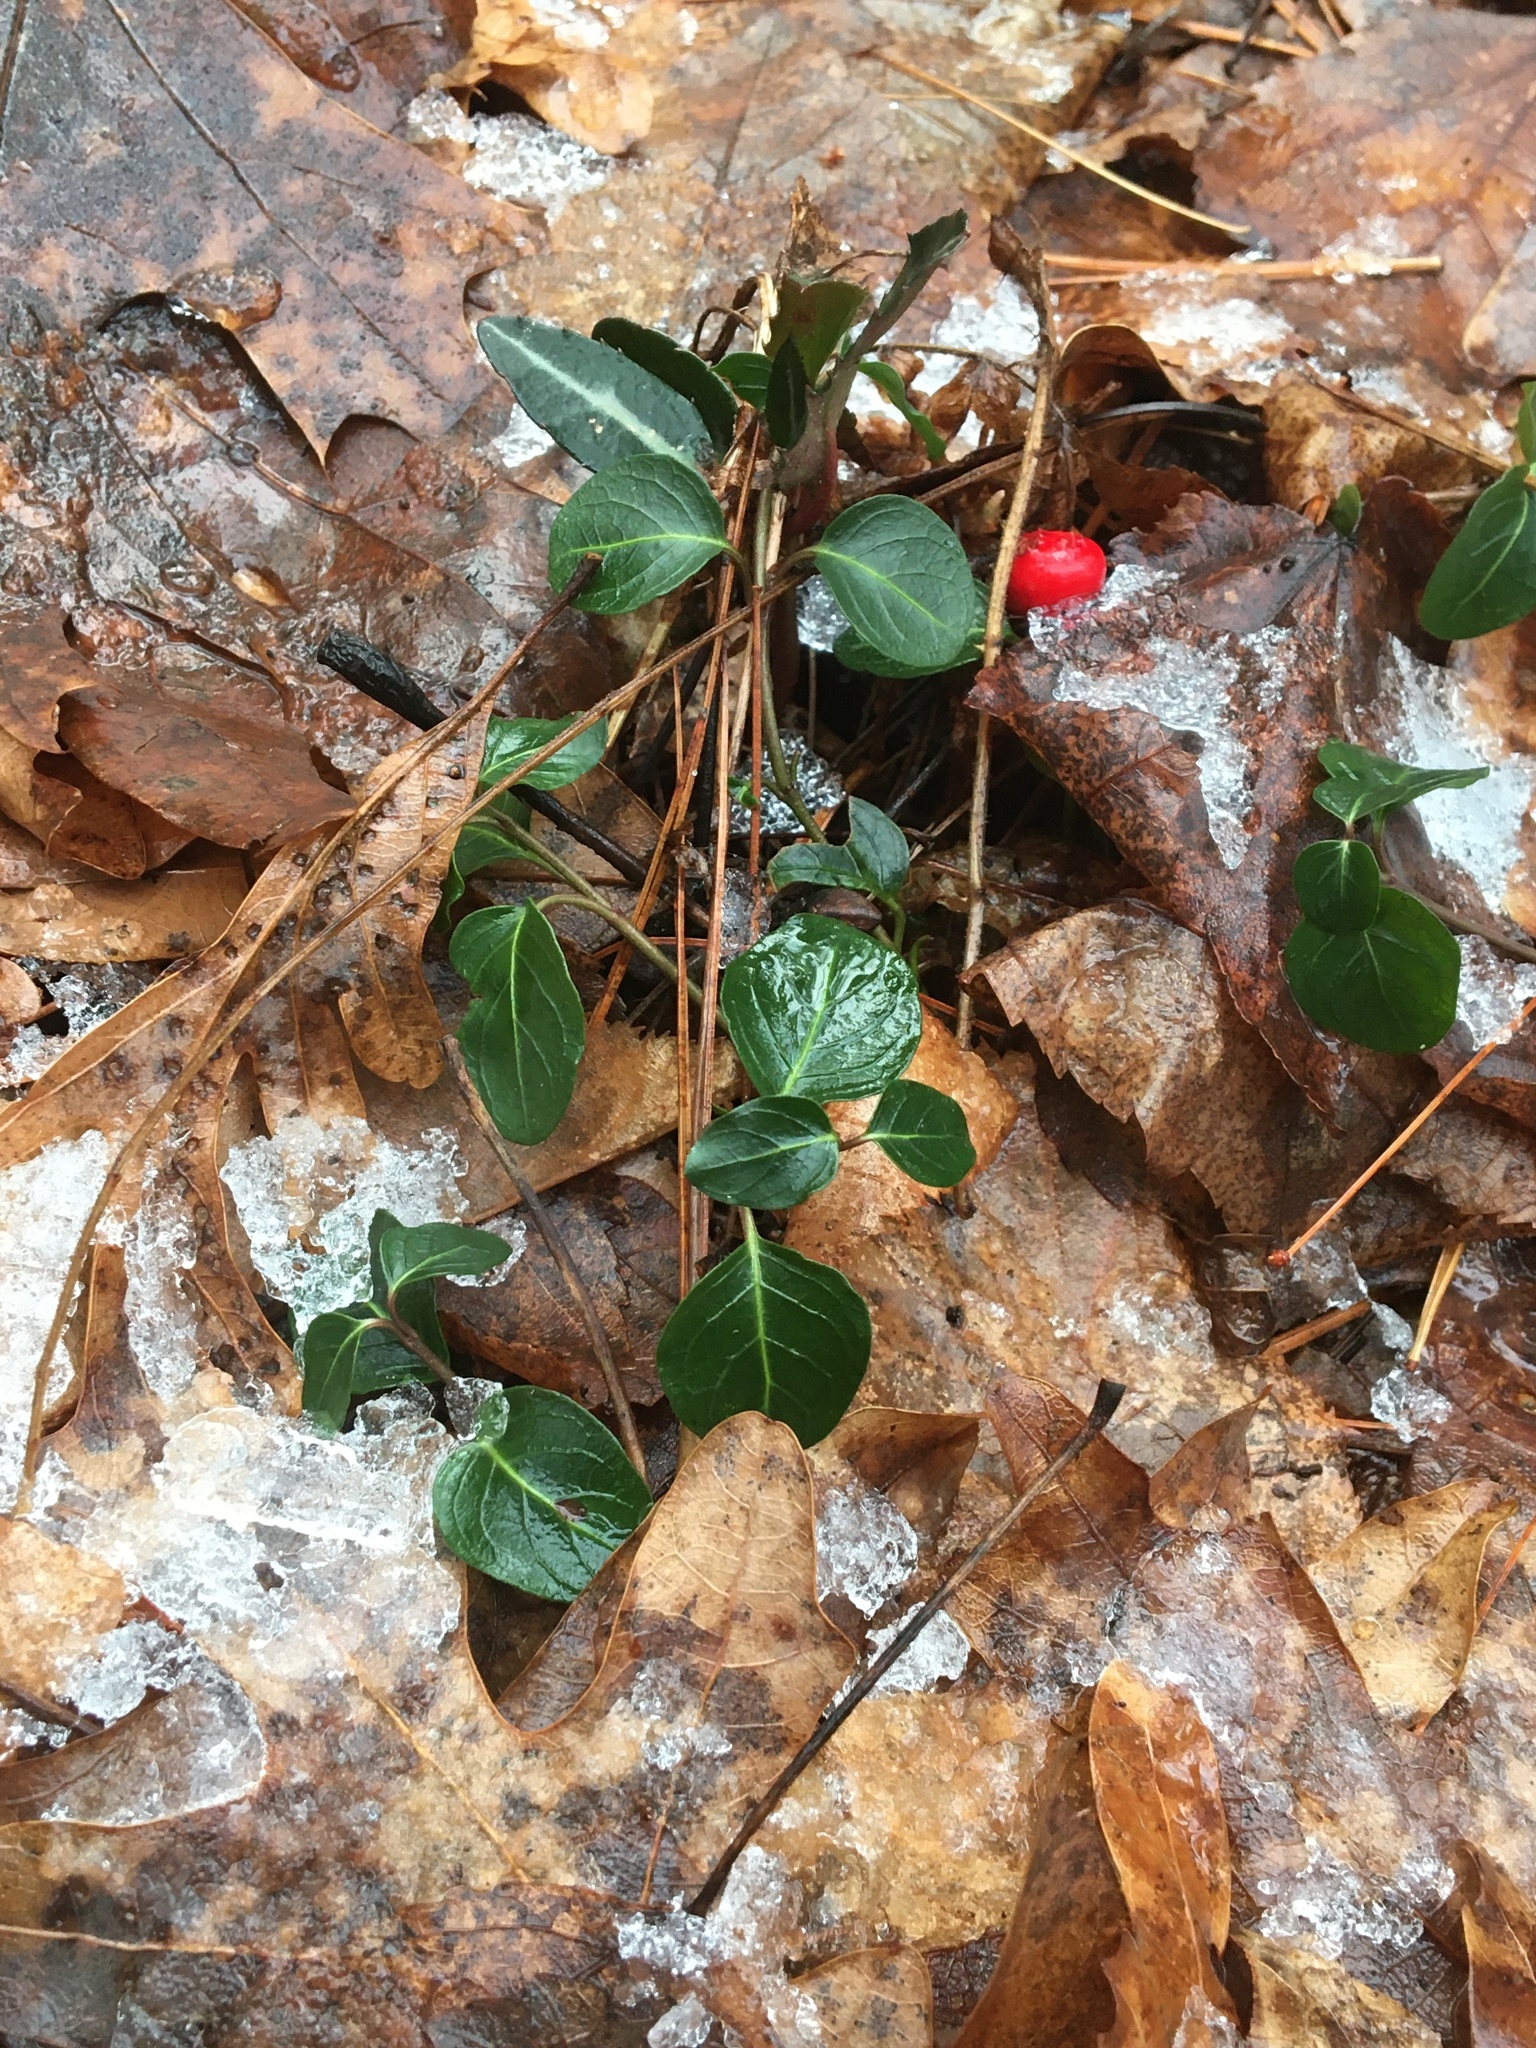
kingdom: Plantae
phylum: Tracheophyta
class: Magnoliopsida
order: Gentianales
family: Rubiaceae
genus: Mitchella
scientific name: Mitchella repens
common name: Partridge-berry
